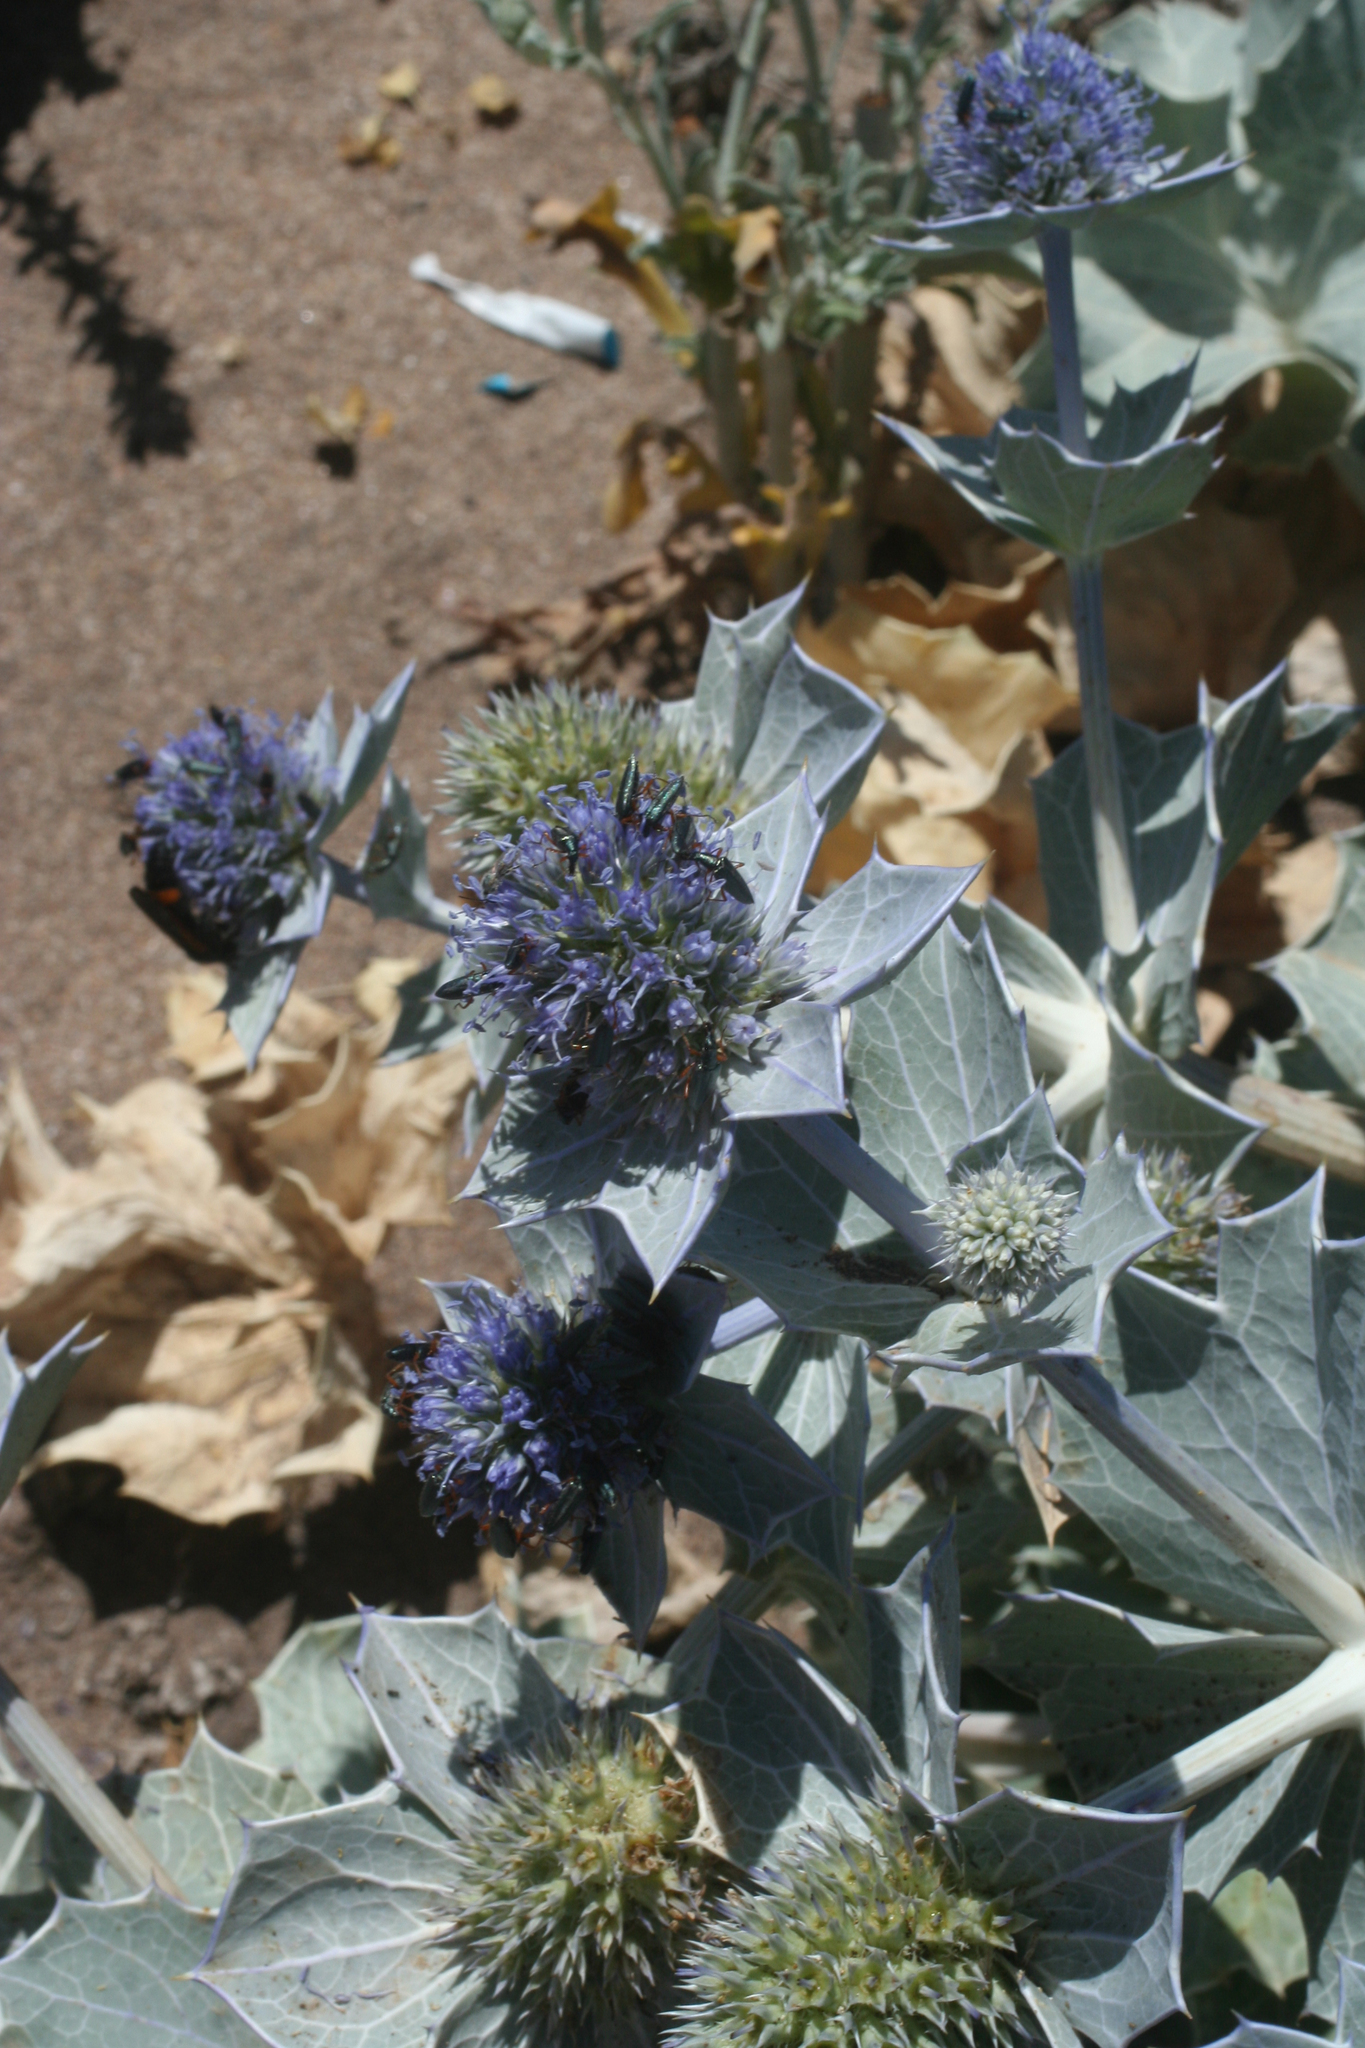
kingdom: Plantae
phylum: Tracheophyta
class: Magnoliopsida
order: Apiales
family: Apiaceae
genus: Eryngium
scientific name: Eryngium maritimum
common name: Sea-holly
